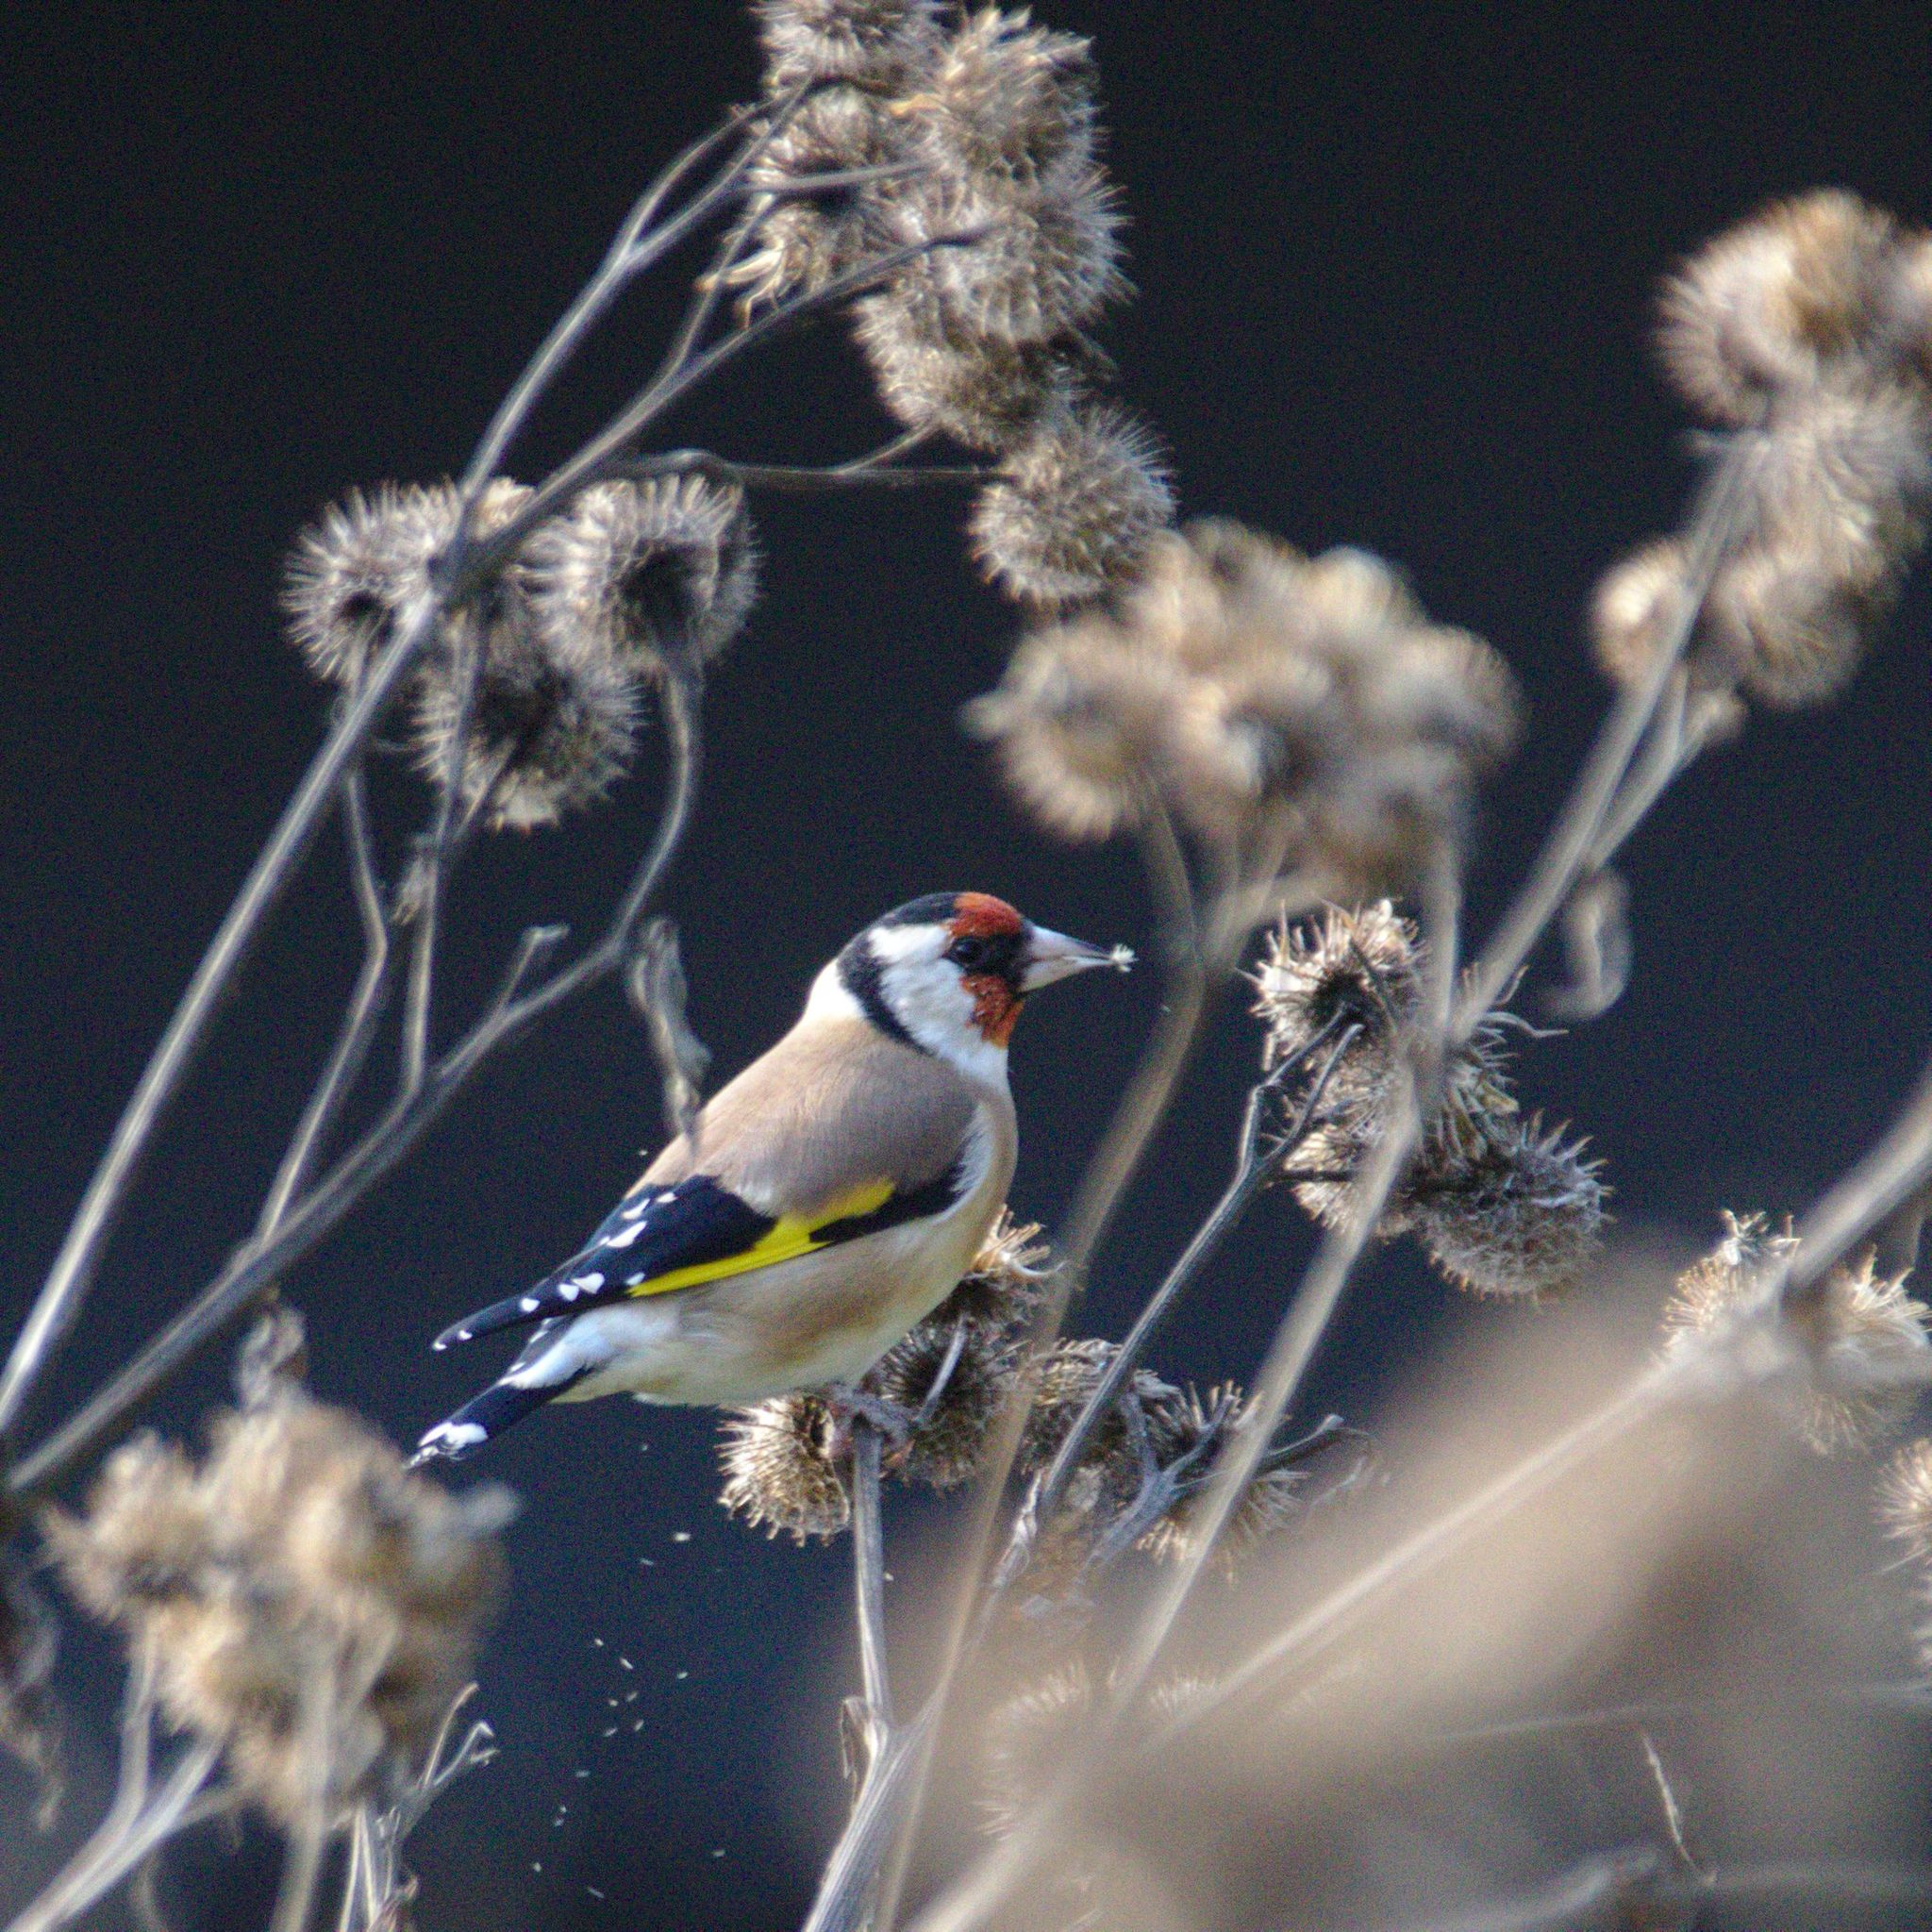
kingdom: Animalia
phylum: Chordata
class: Aves
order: Passeriformes
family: Fringillidae
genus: Carduelis
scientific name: Carduelis carduelis
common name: European goldfinch
